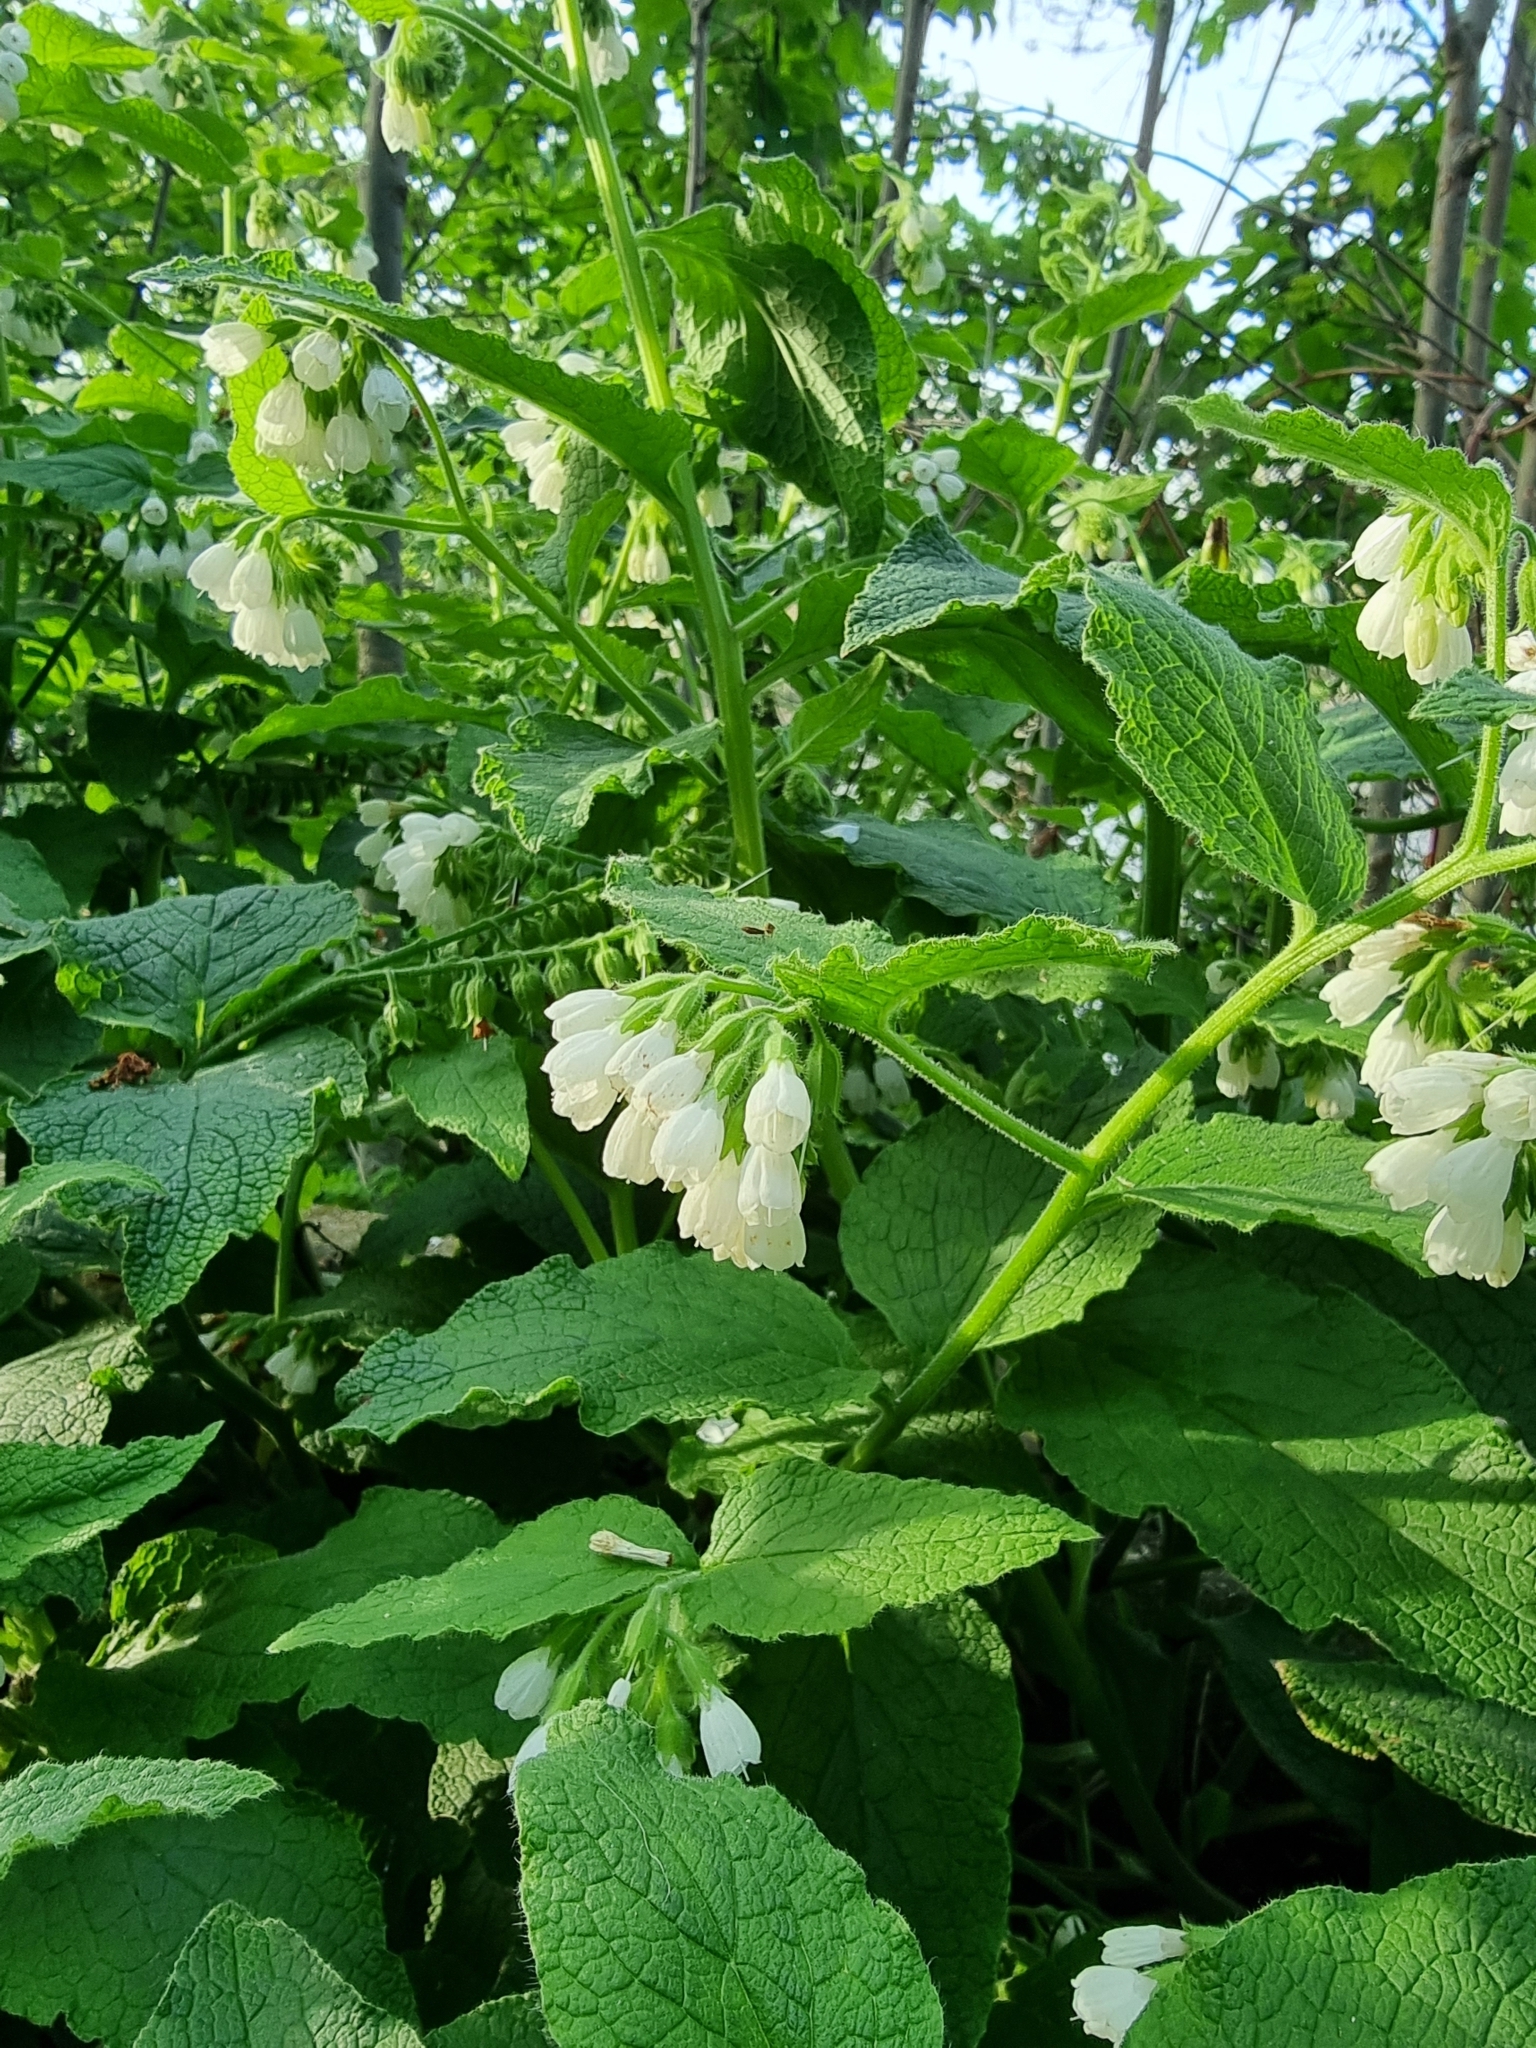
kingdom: Plantae
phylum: Tracheophyta
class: Magnoliopsida
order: Boraginales
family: Boraginaceae
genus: Symphytum
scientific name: Symphytum orientale
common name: White comfrey
